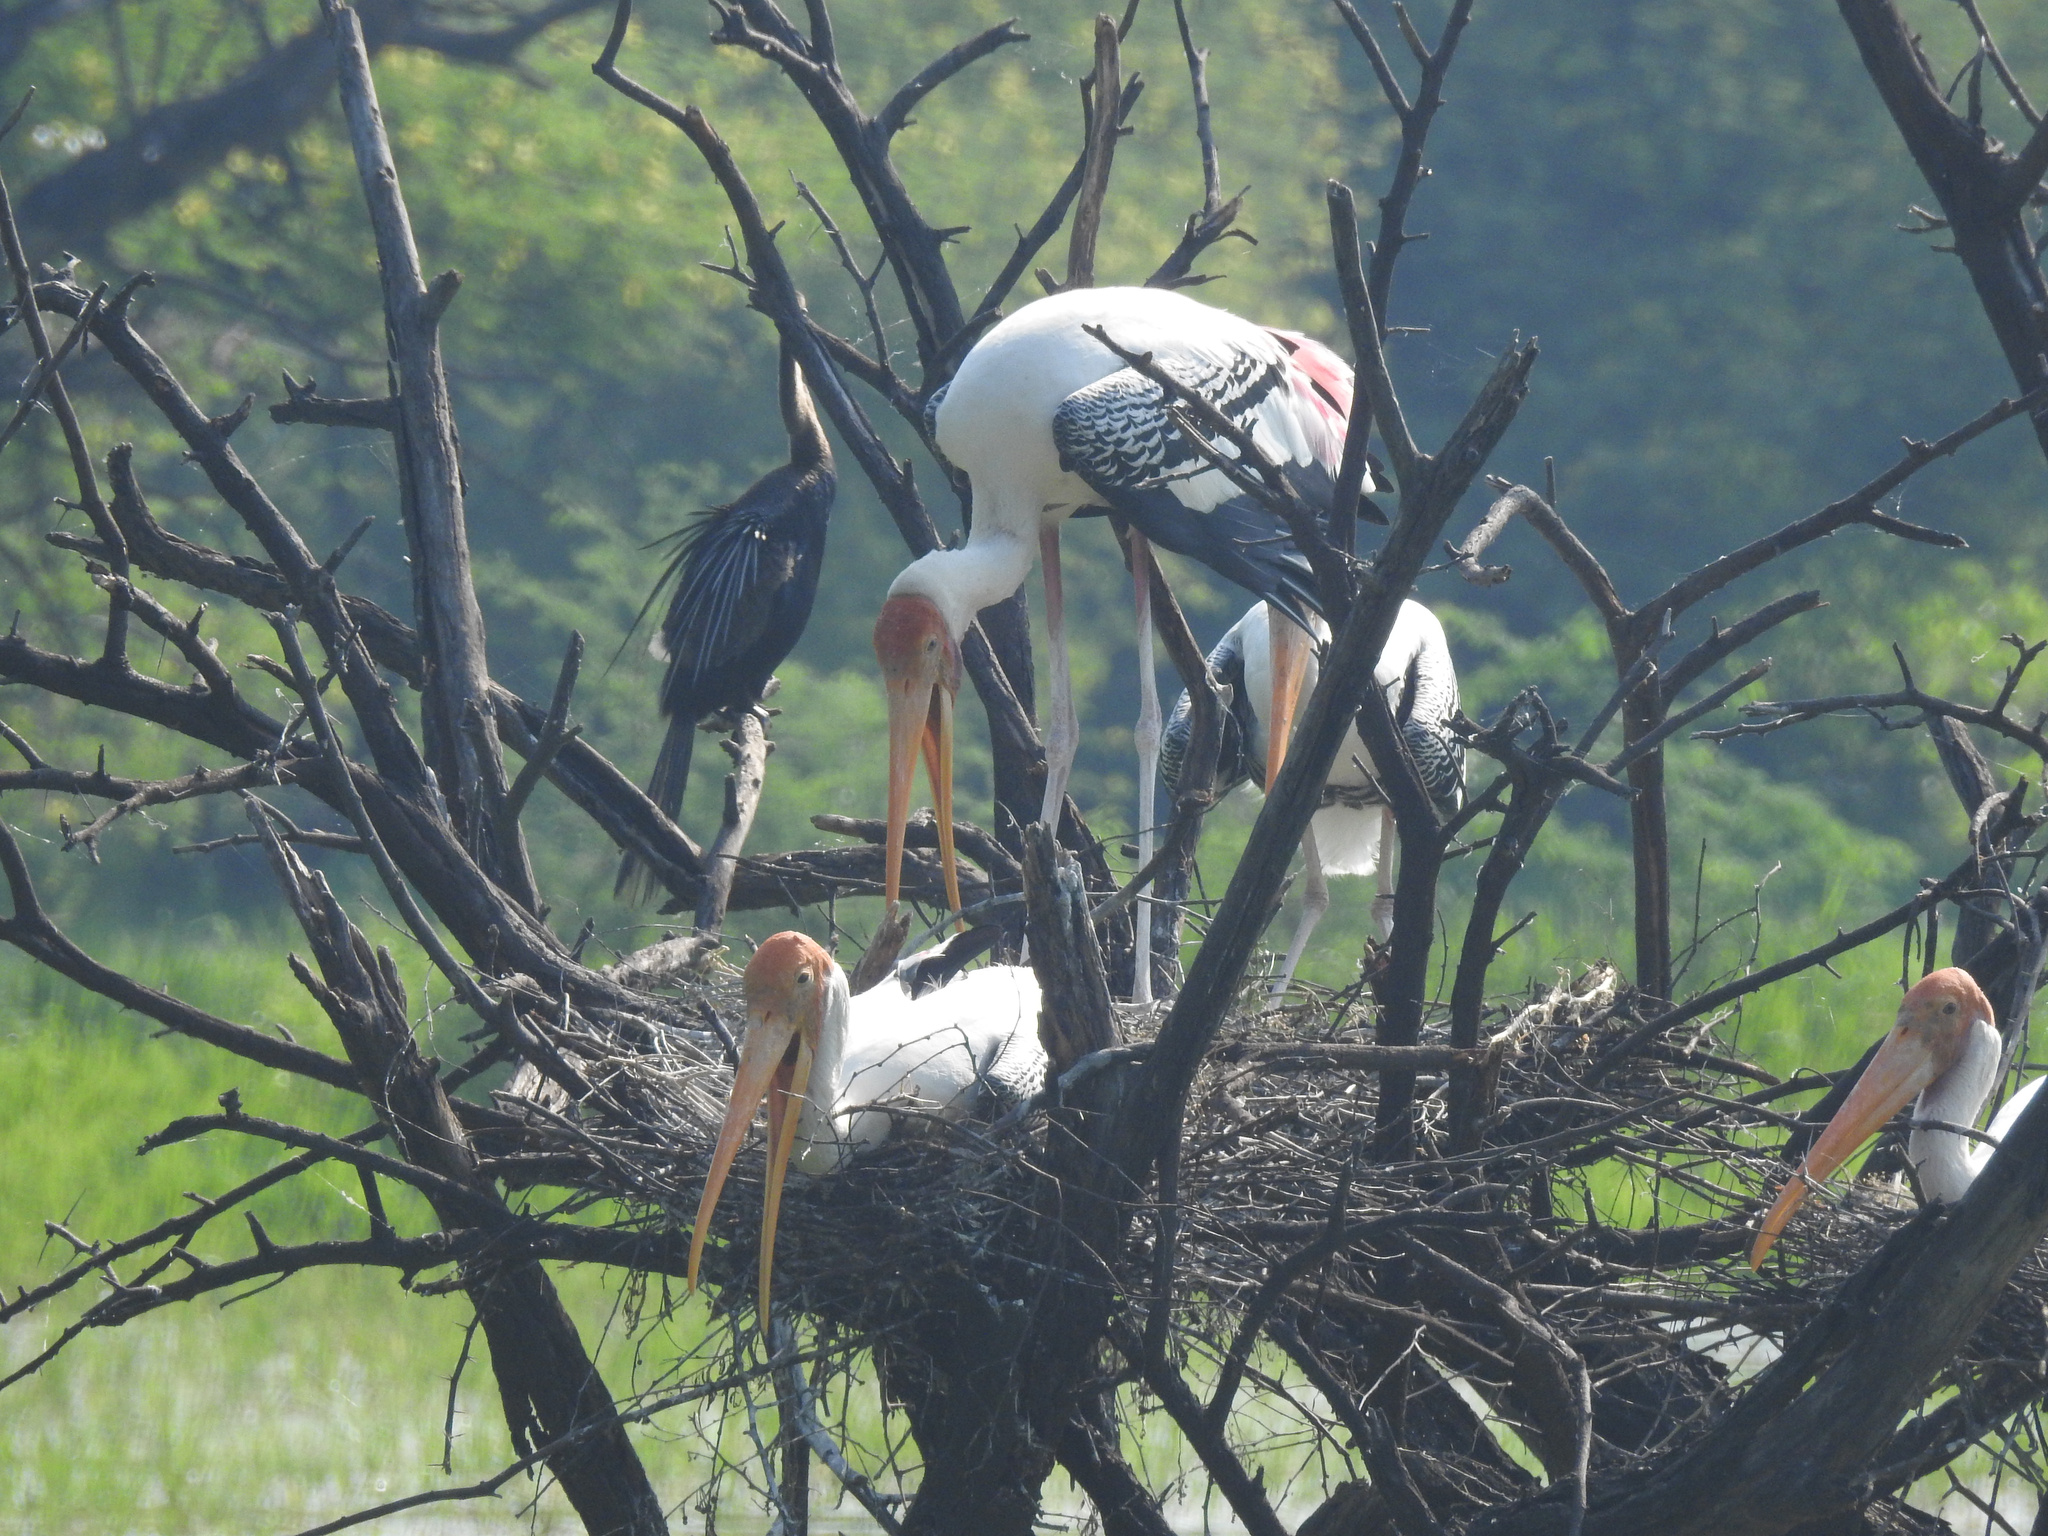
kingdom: Animalia
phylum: Chordata
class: Aves
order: Ciconiiformes
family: Ciconiidae
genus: Mycteria
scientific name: Mycteria leucocephala
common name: Painted stork
